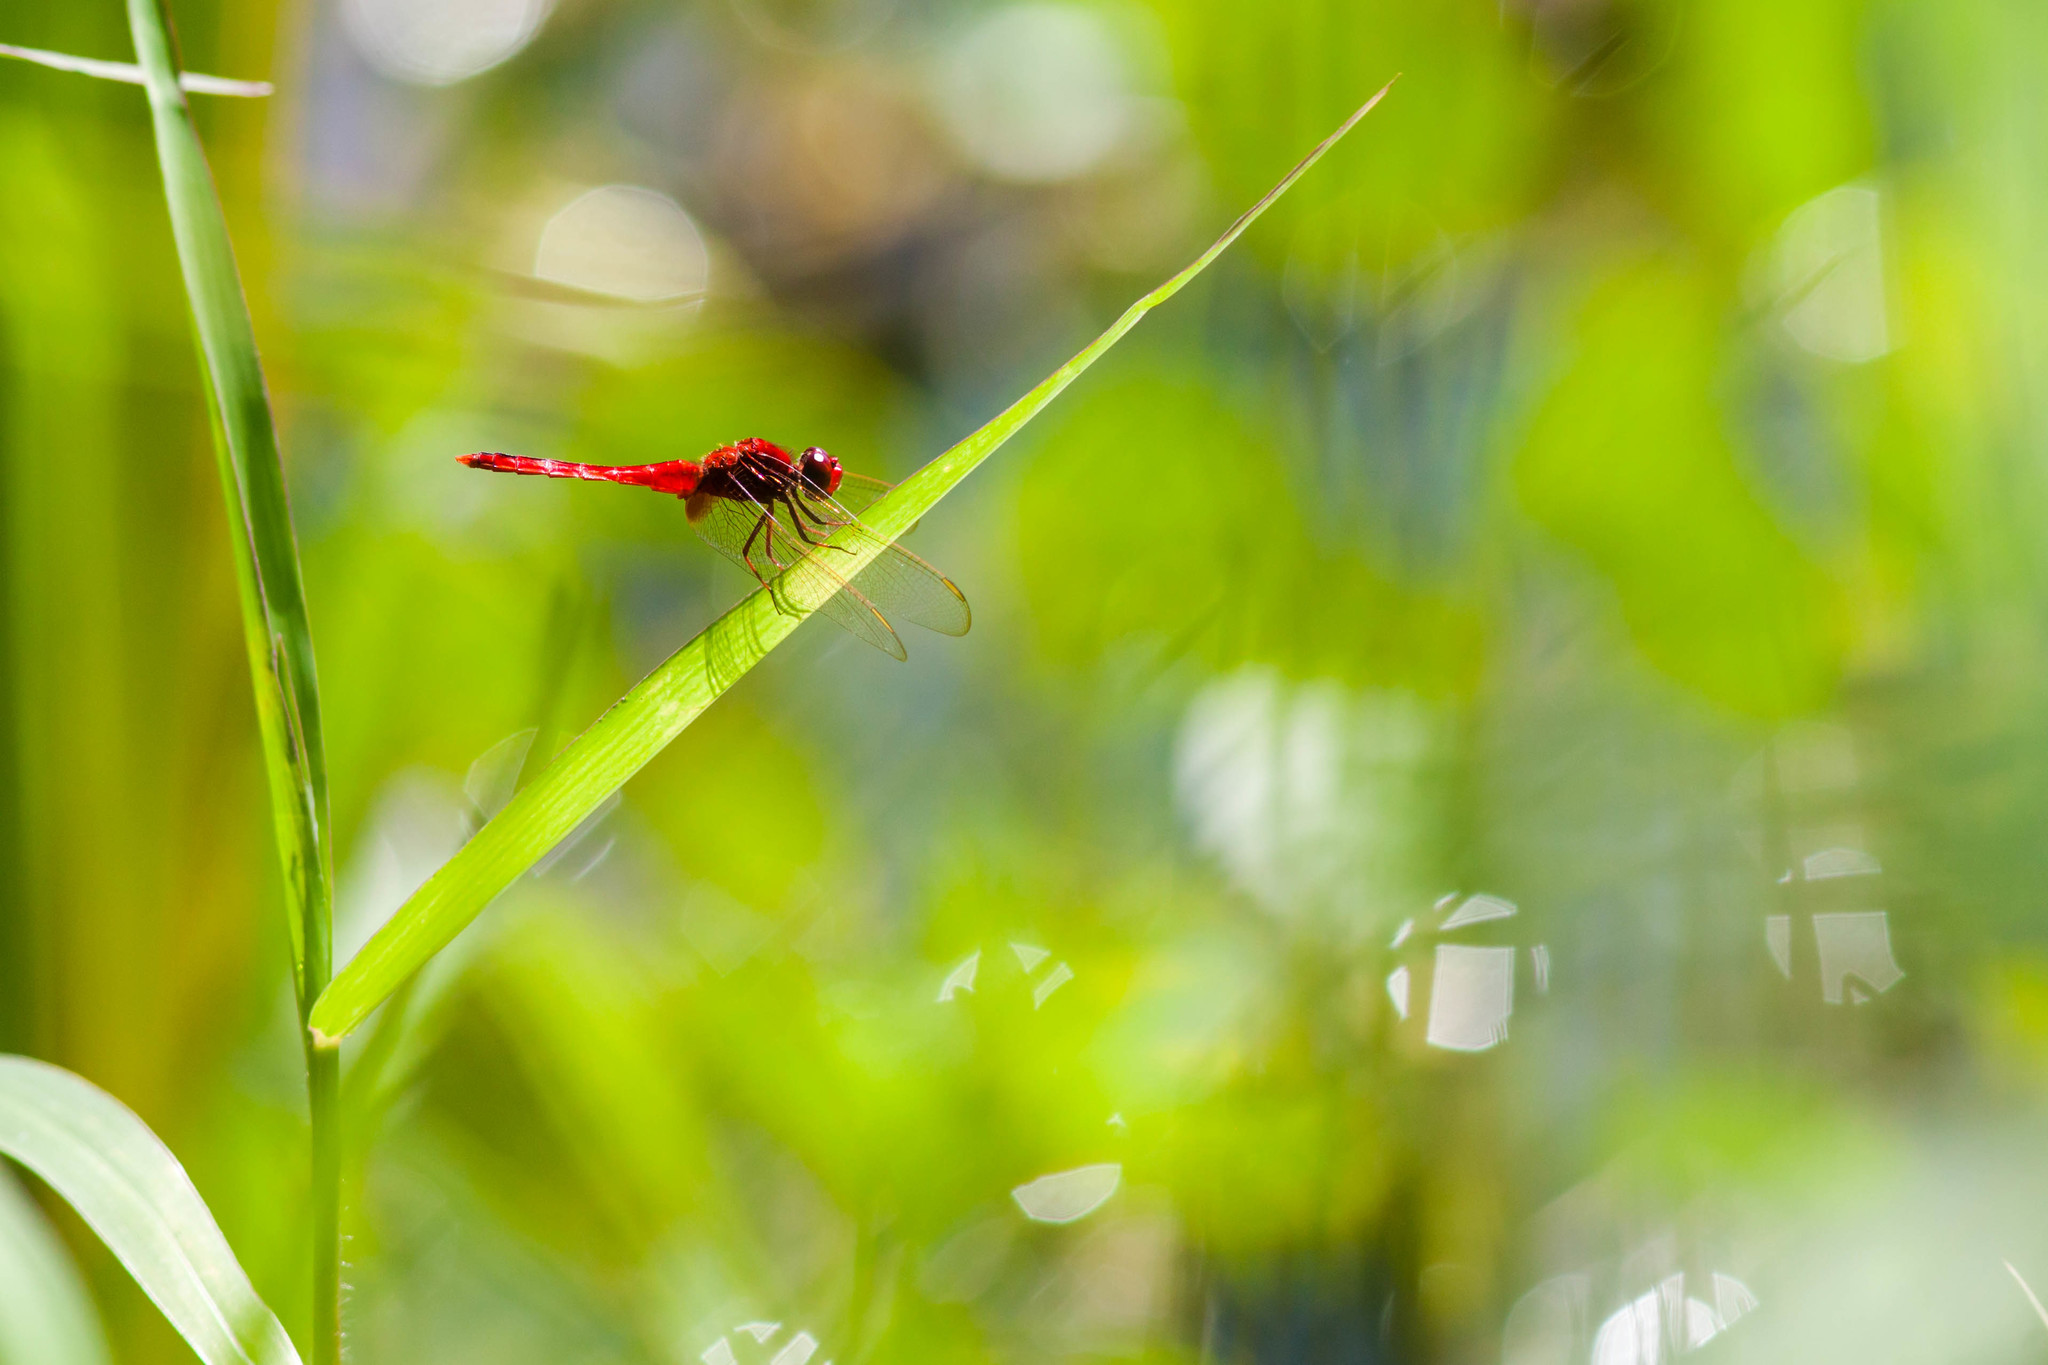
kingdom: Animalia
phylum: Arthropoda
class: Insecta
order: Odonata
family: Libellulidae
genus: Crocothemis
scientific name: Crocothemis servilia
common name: Scarlet skimmer
